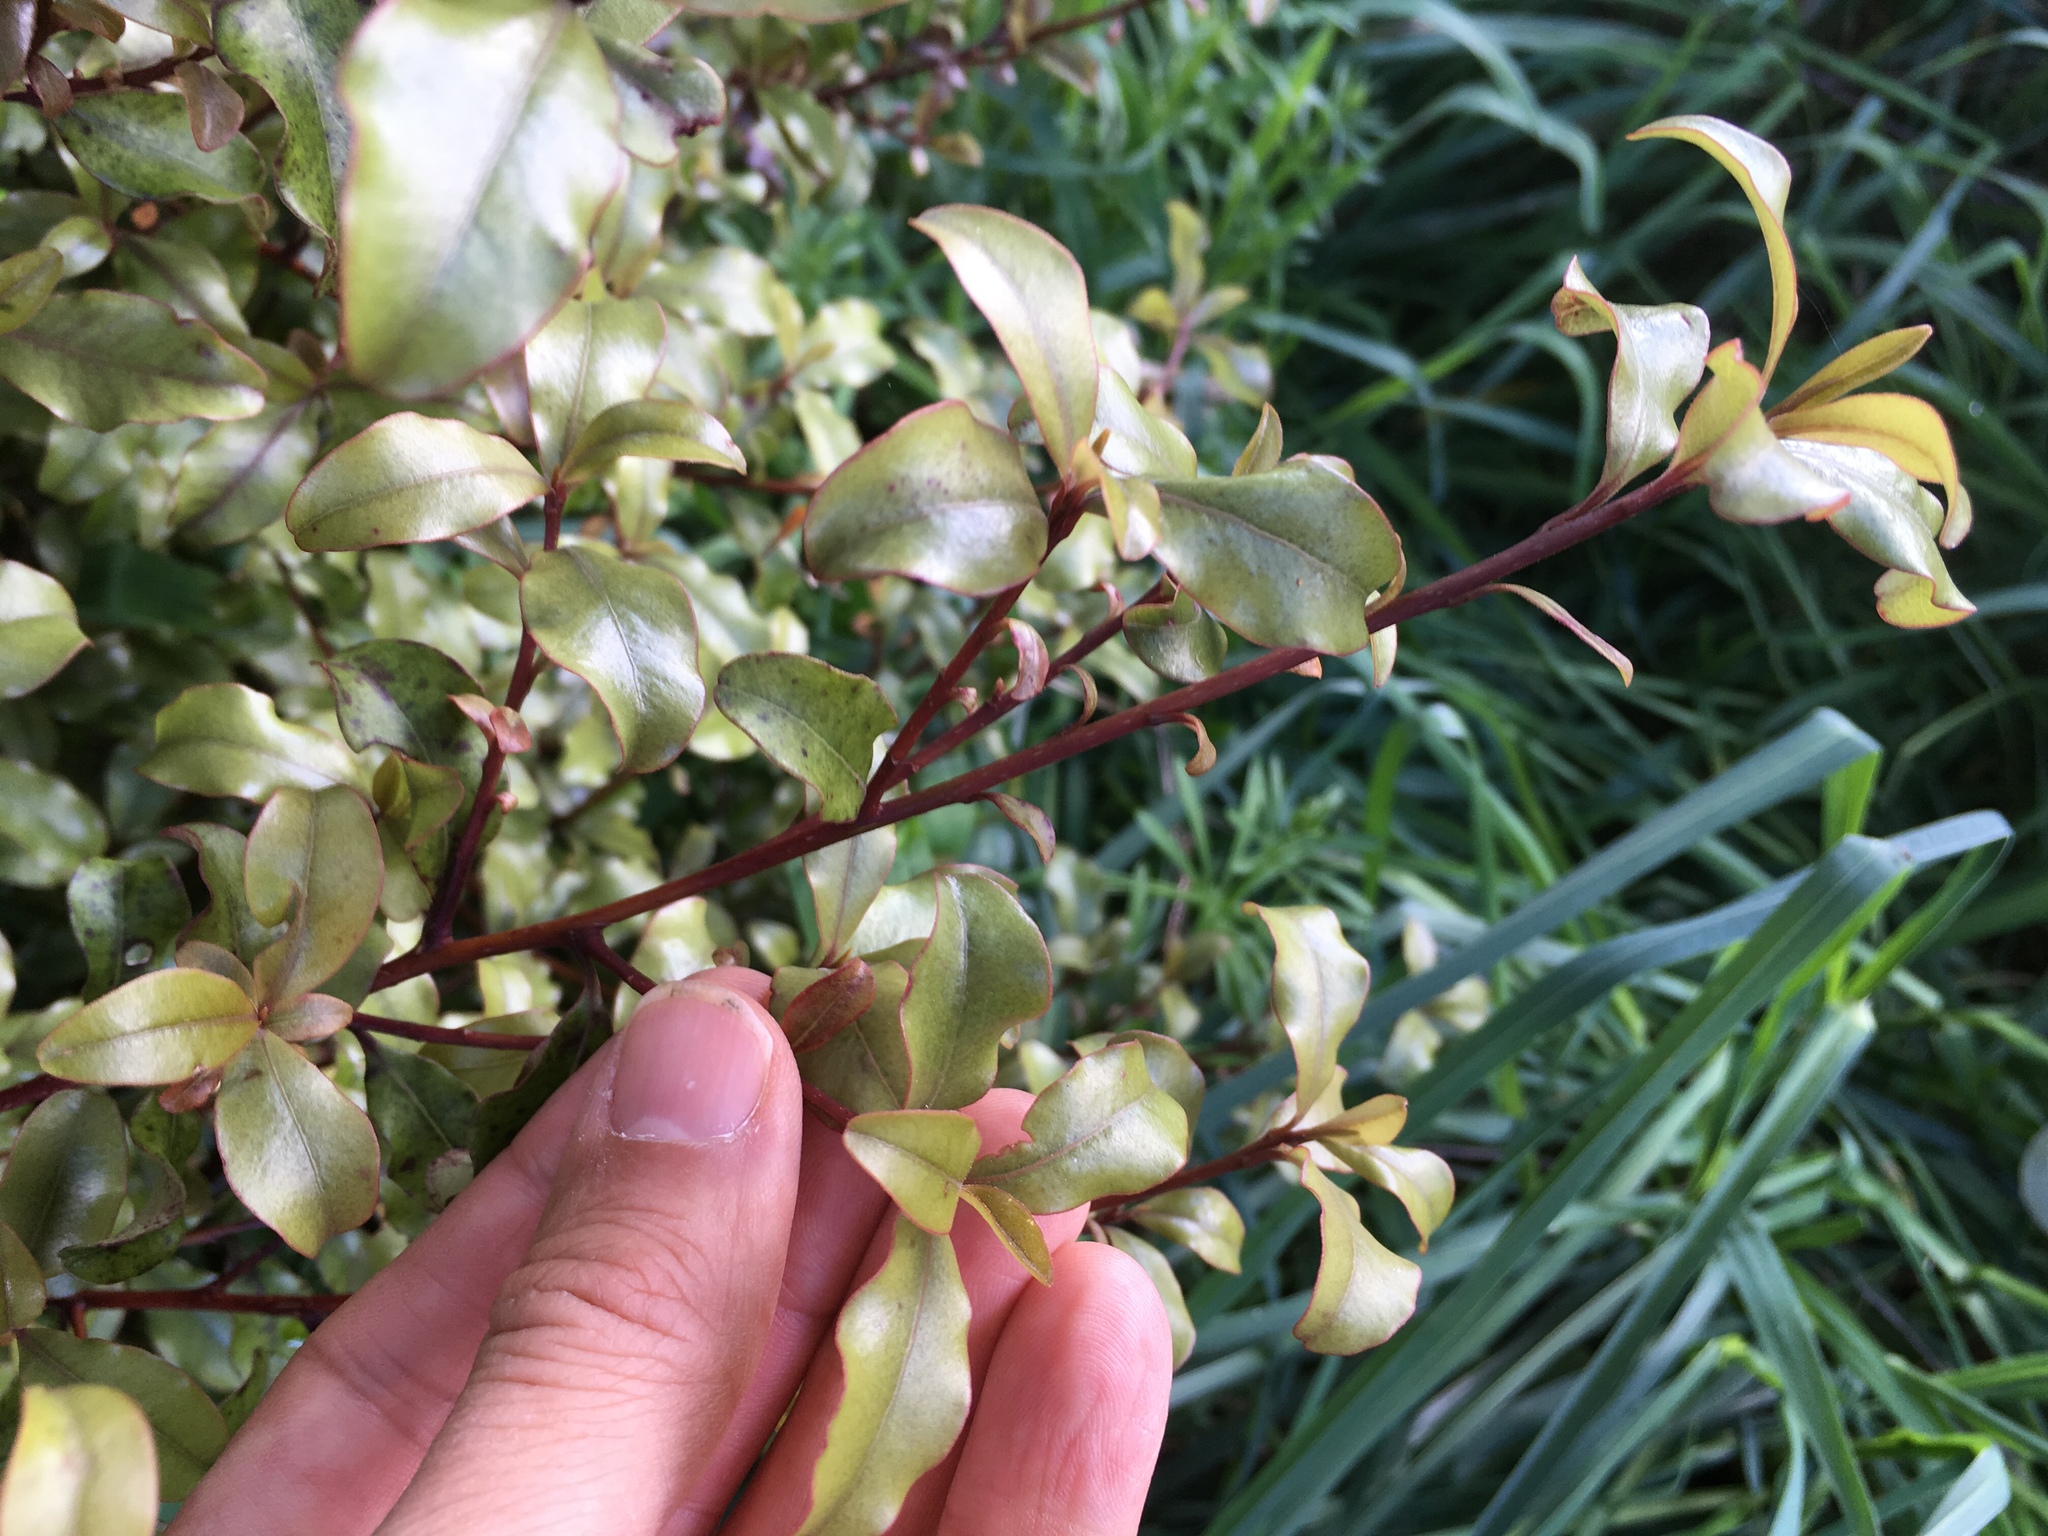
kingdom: Plantae
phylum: Tracheophyta
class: Magnoliopsida
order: Ericales
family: Primulaceae
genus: Myrsine
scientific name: Myrsine australis
